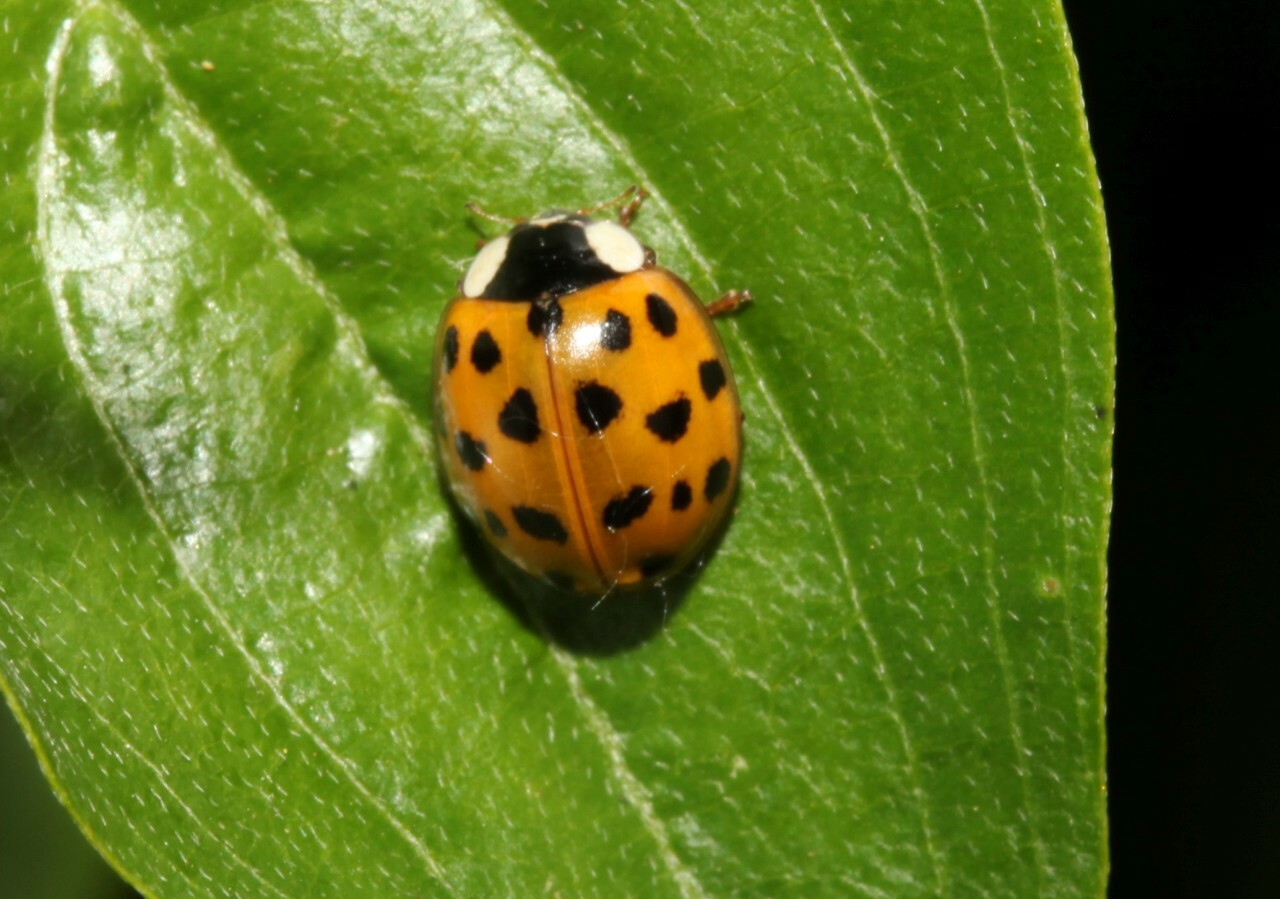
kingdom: Animalia
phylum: Arthropoda
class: Insecta
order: Coleoptera
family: Coccinellidae
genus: Harmonia
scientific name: Harmonia axyridis
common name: Harlequin ladybird
